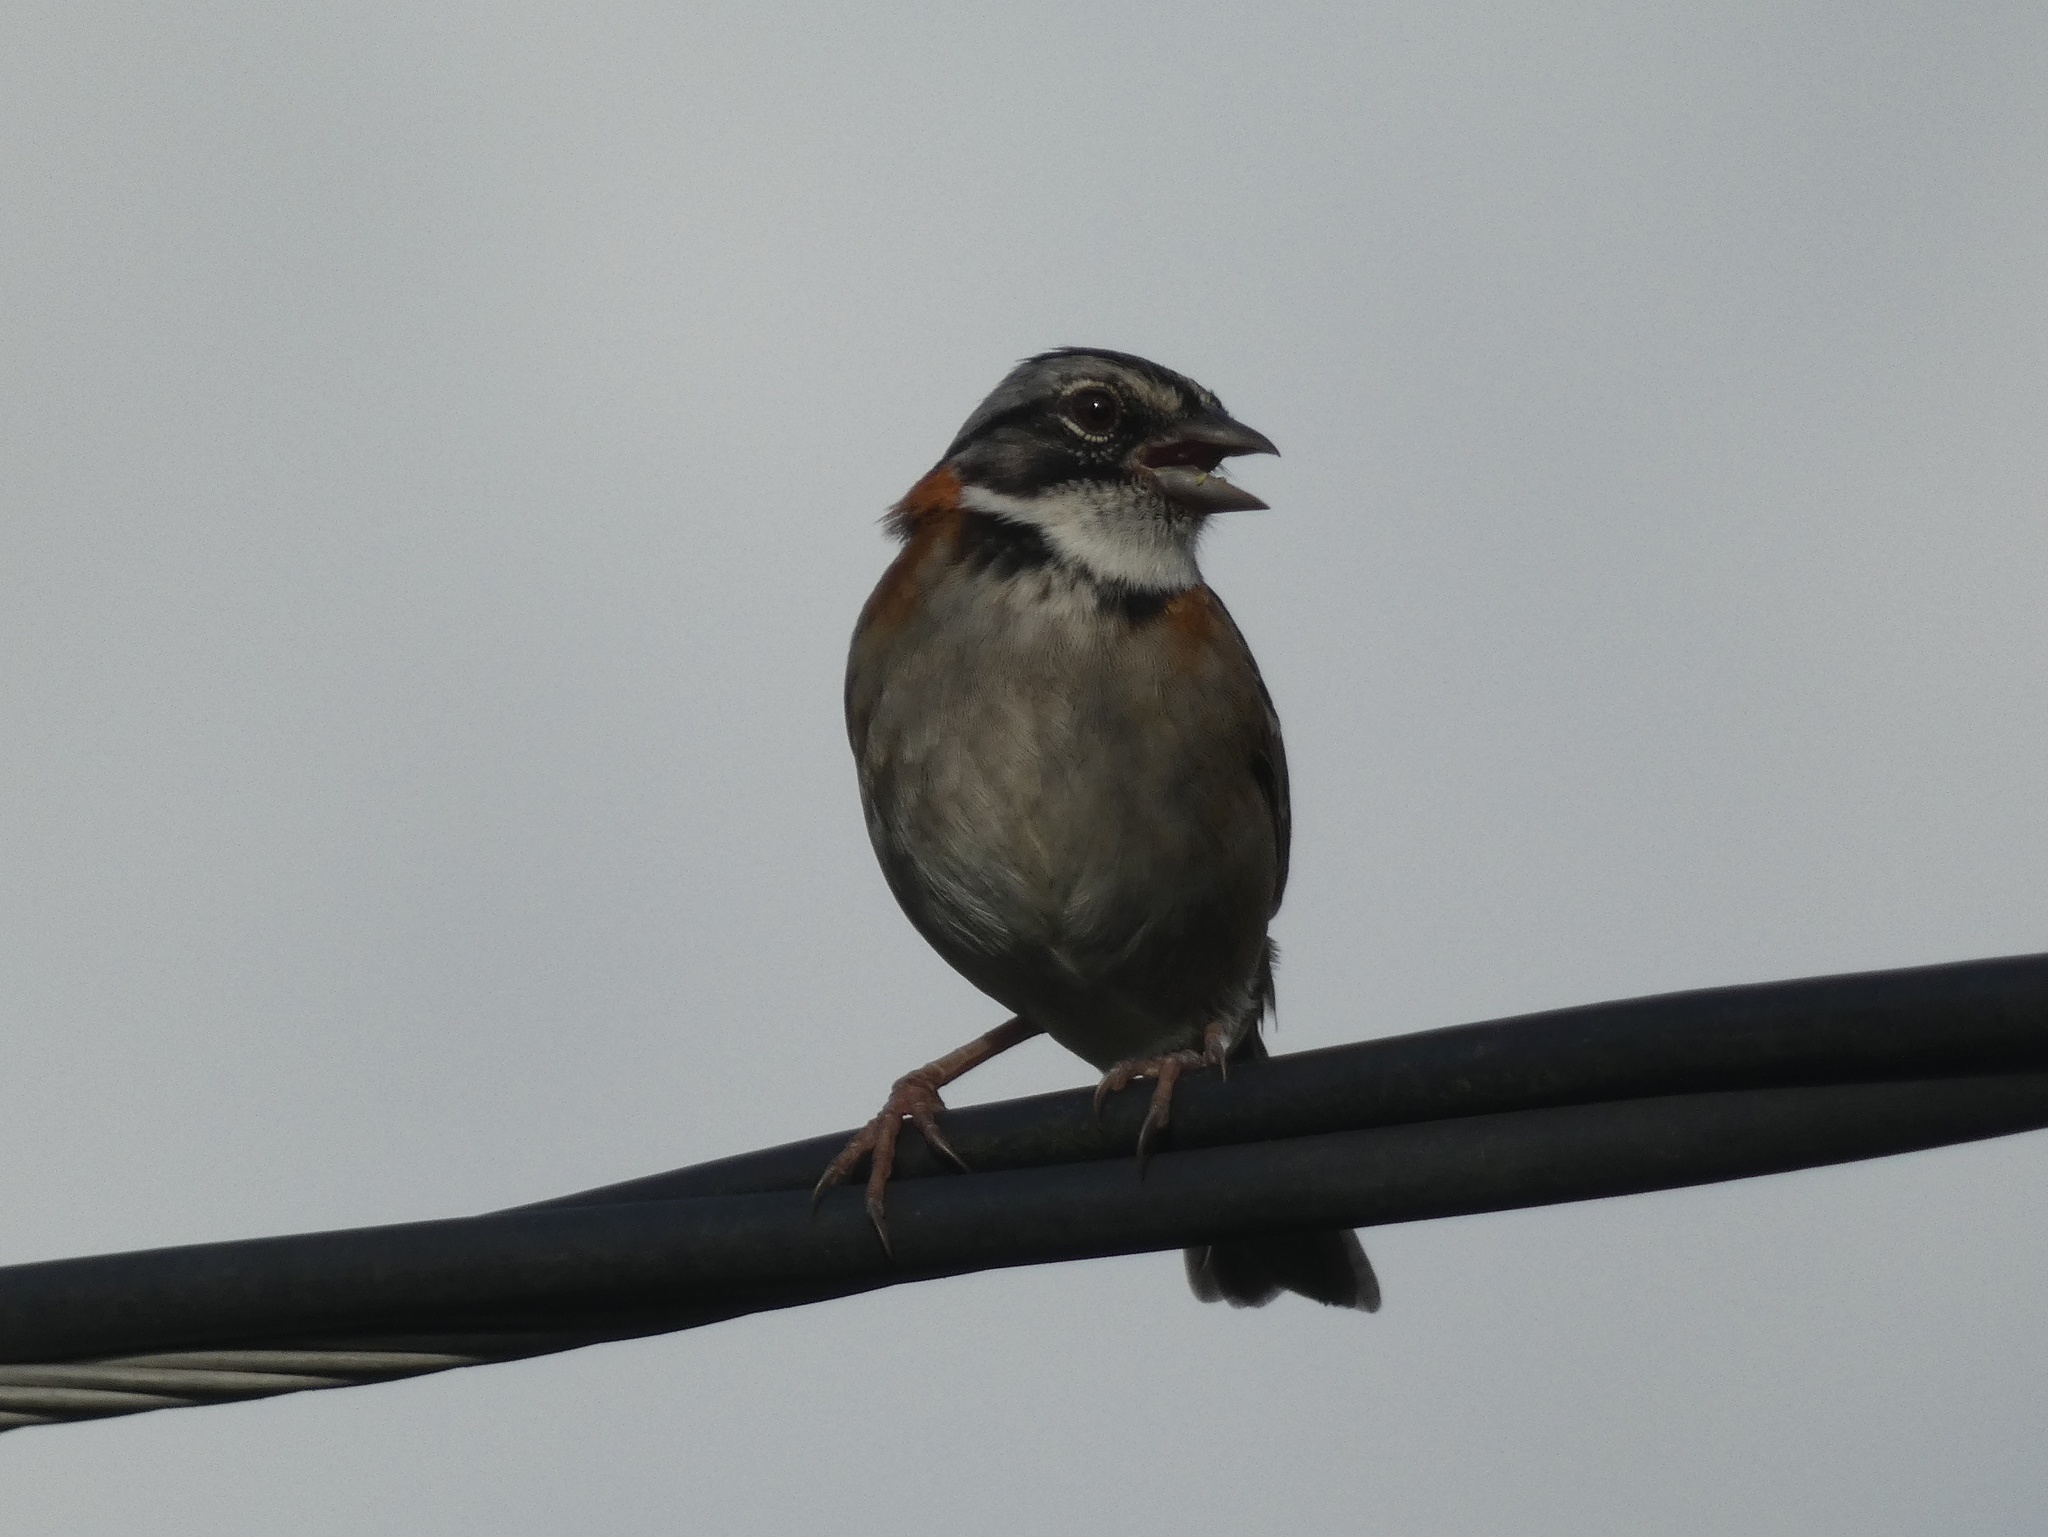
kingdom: Animalia
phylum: Chordata
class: Aves
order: Passeriformes
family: Passerellidae
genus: Zonotrichia
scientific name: Zonotrichia capensis
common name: Rufous-collared sparrow
